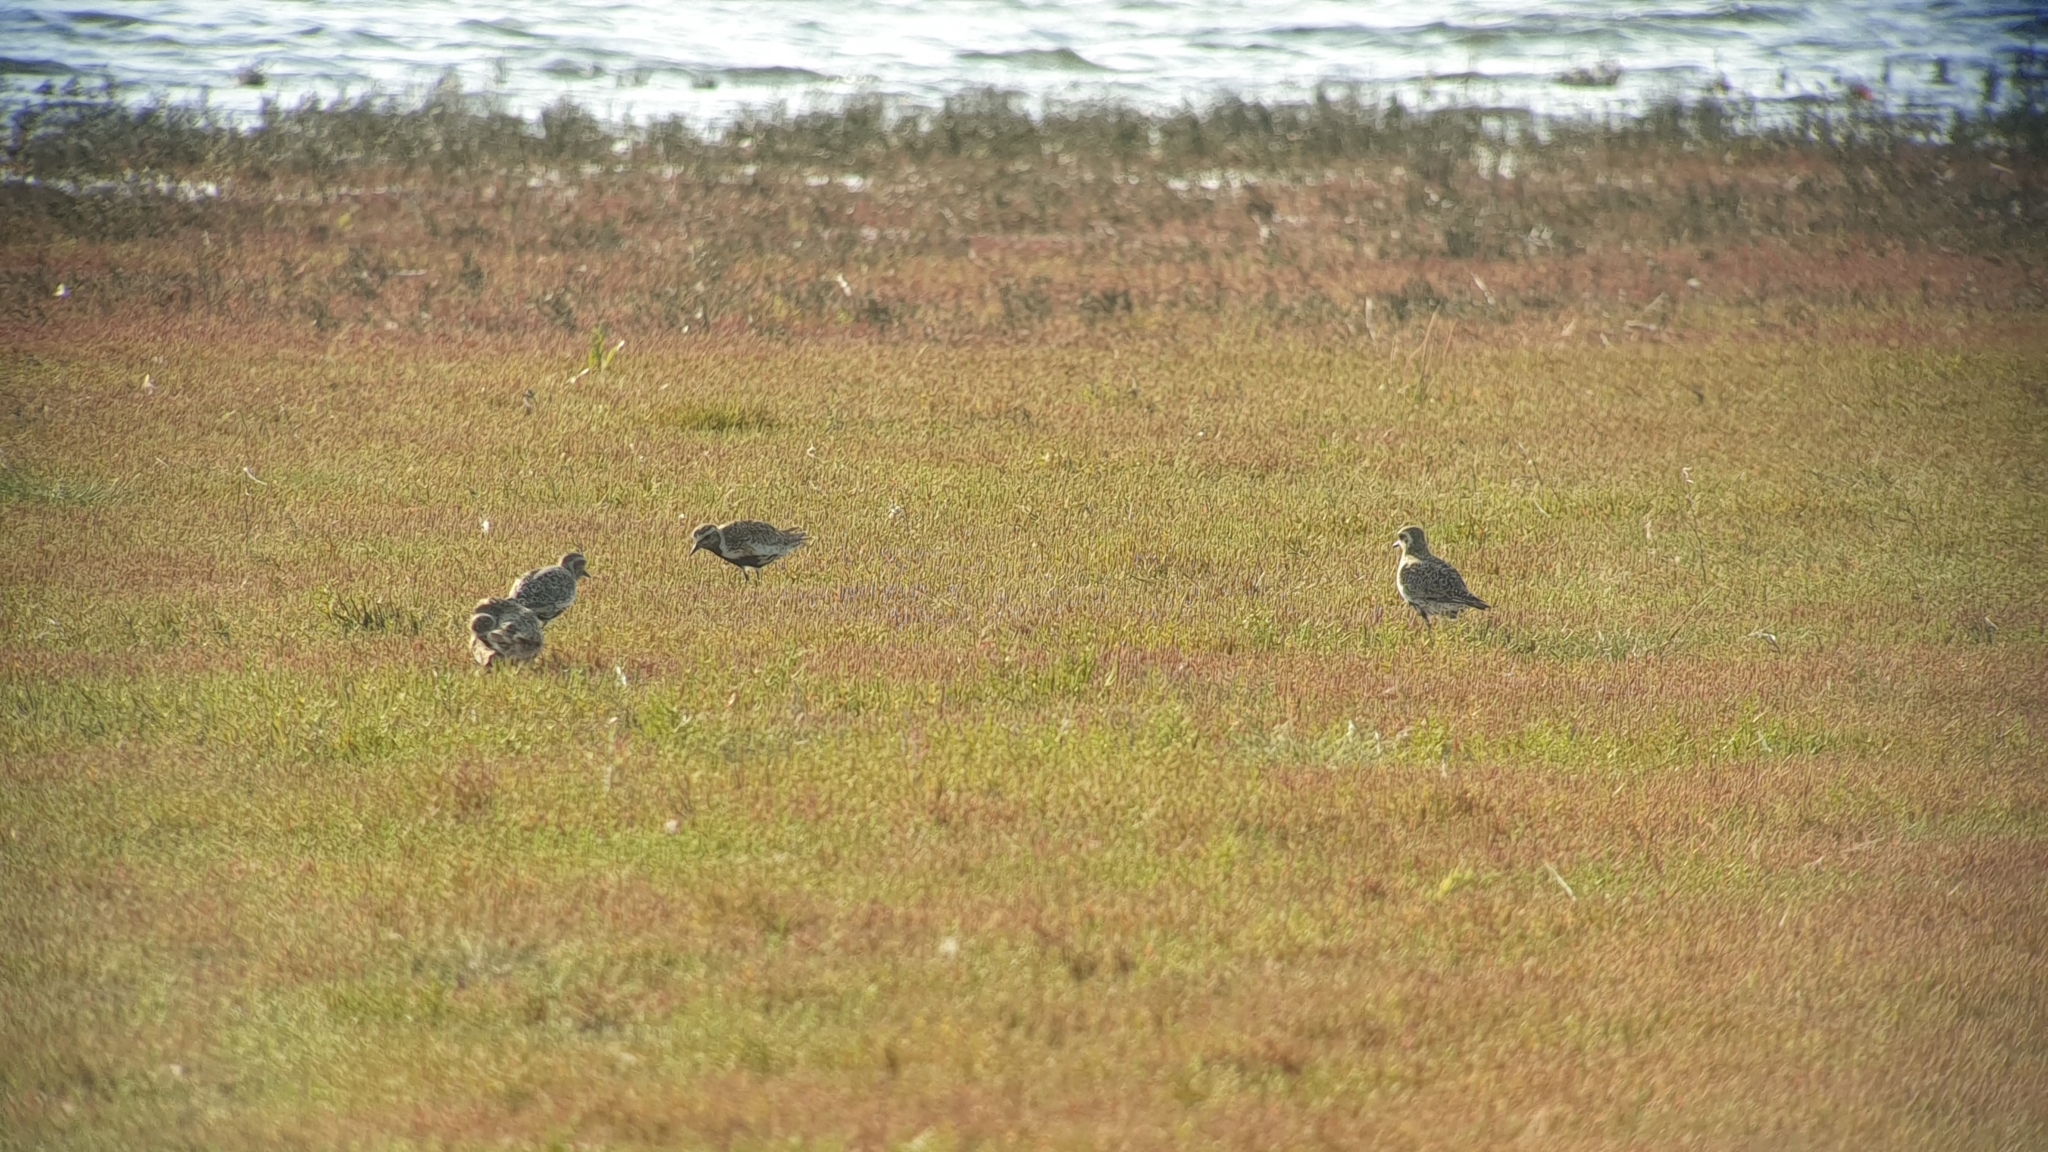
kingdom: Animalia
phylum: Chordata
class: Aves
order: Charadriiformes
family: Charadriidae
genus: Pluvialis
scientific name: Pluvialis apricaria
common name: European golden plover
